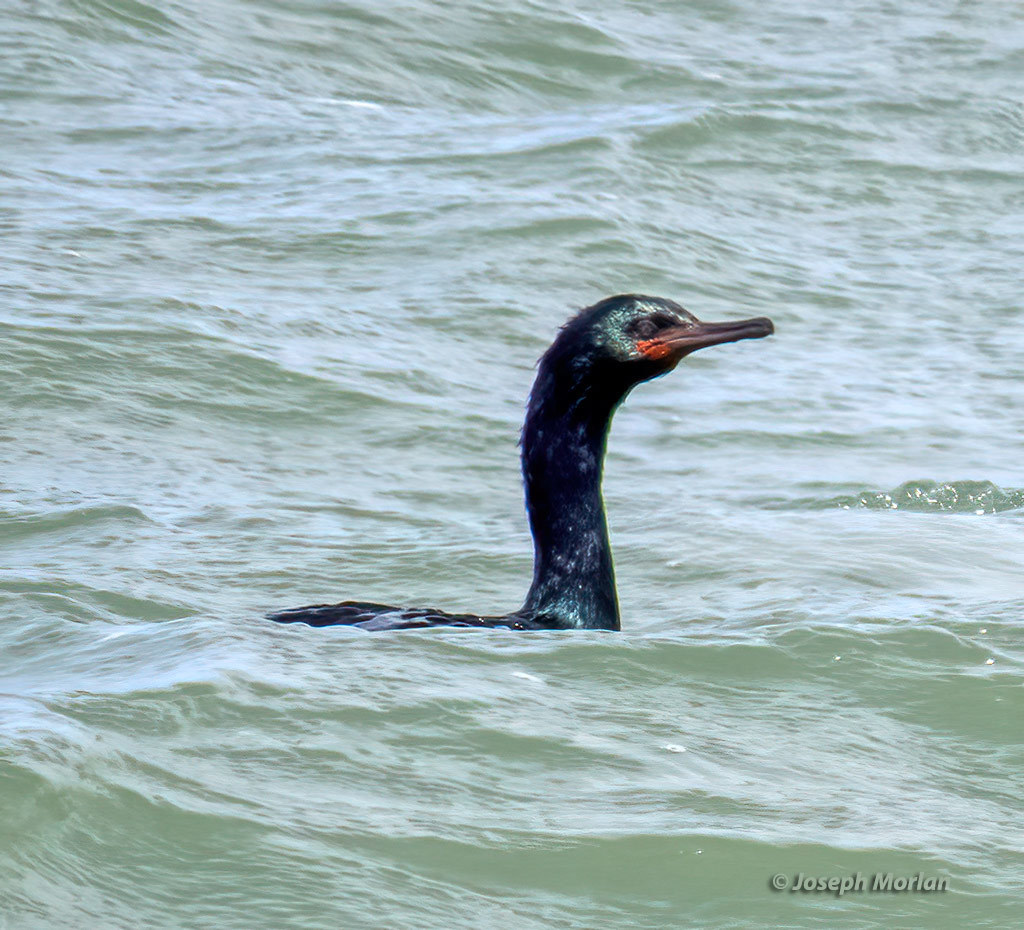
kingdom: Animalia
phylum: Chordata
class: Aves
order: Suliformes
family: Phalacrocoracidae
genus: Phalacrocorax
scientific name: Phalacrocorax pelagicus
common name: Pelagic cormorant
